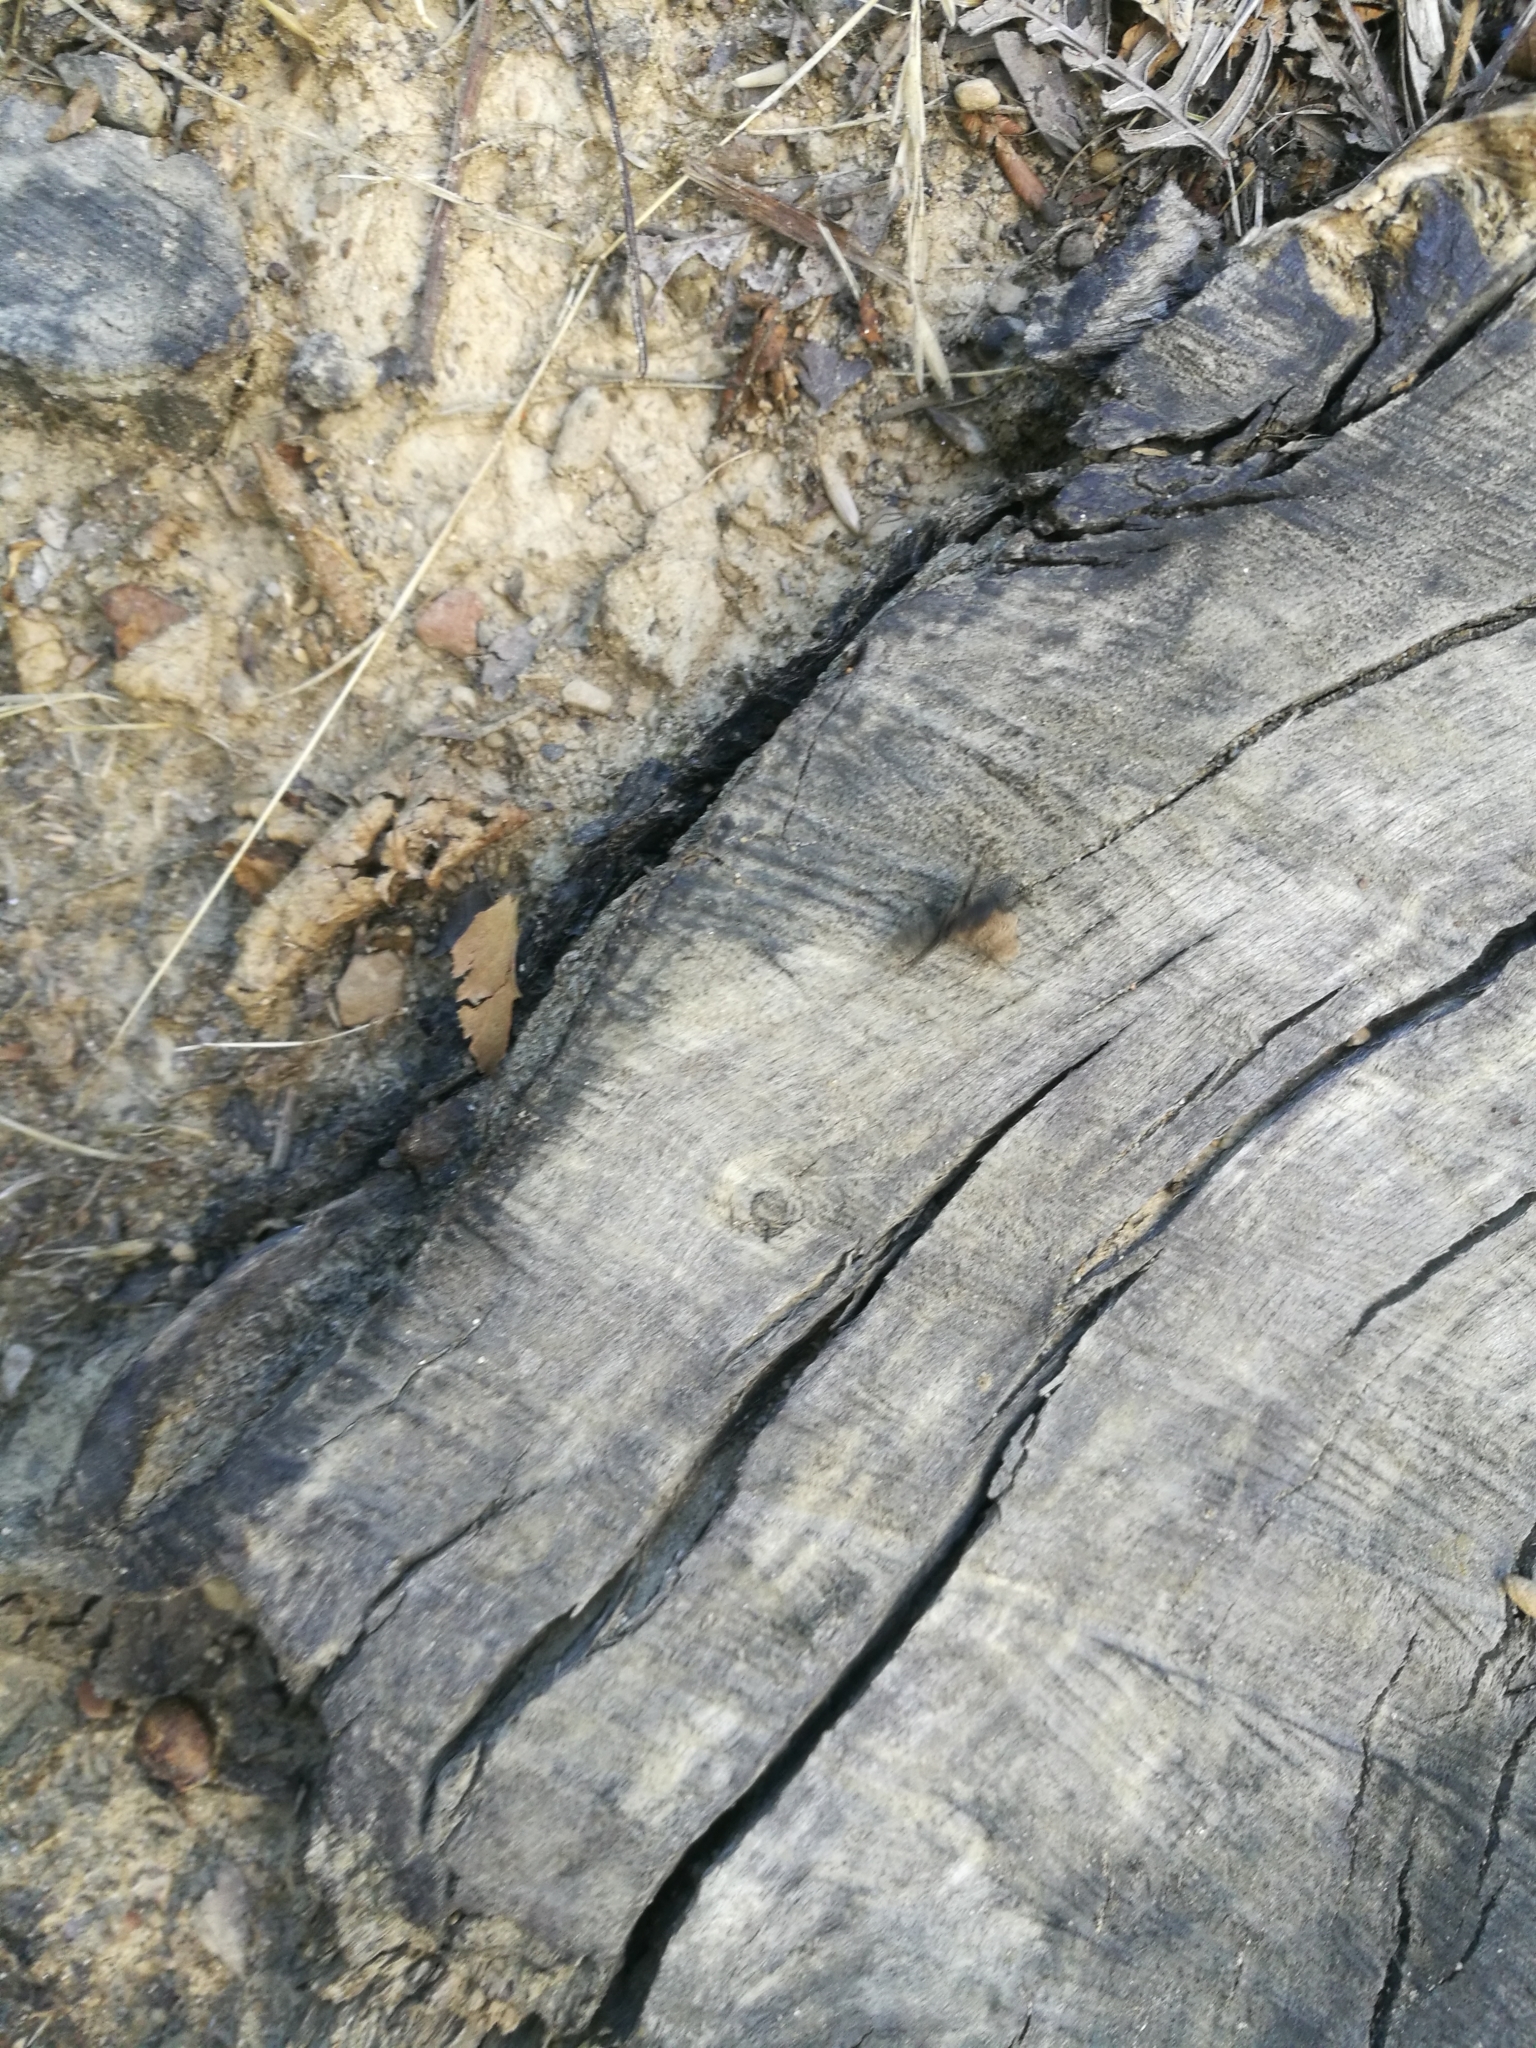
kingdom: Animalia
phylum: Arthropoda
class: Insecta
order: Hymenoptera
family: Formicidae
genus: Camponotus
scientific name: Camponotus vagus
